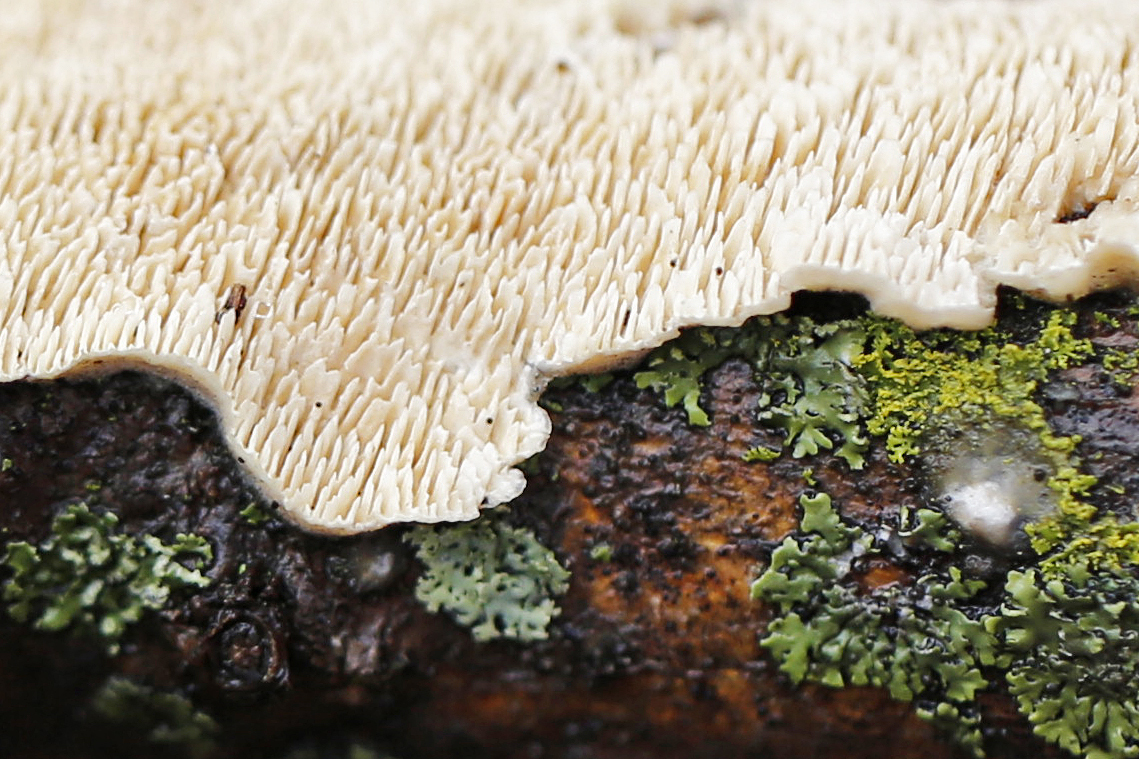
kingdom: Fungi
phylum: Basidiomycota
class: Agaricomycetes
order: Polyporales
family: Irpicaceae
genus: Irpex
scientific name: Irpex lacteus
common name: Milk-white toothed polypore
